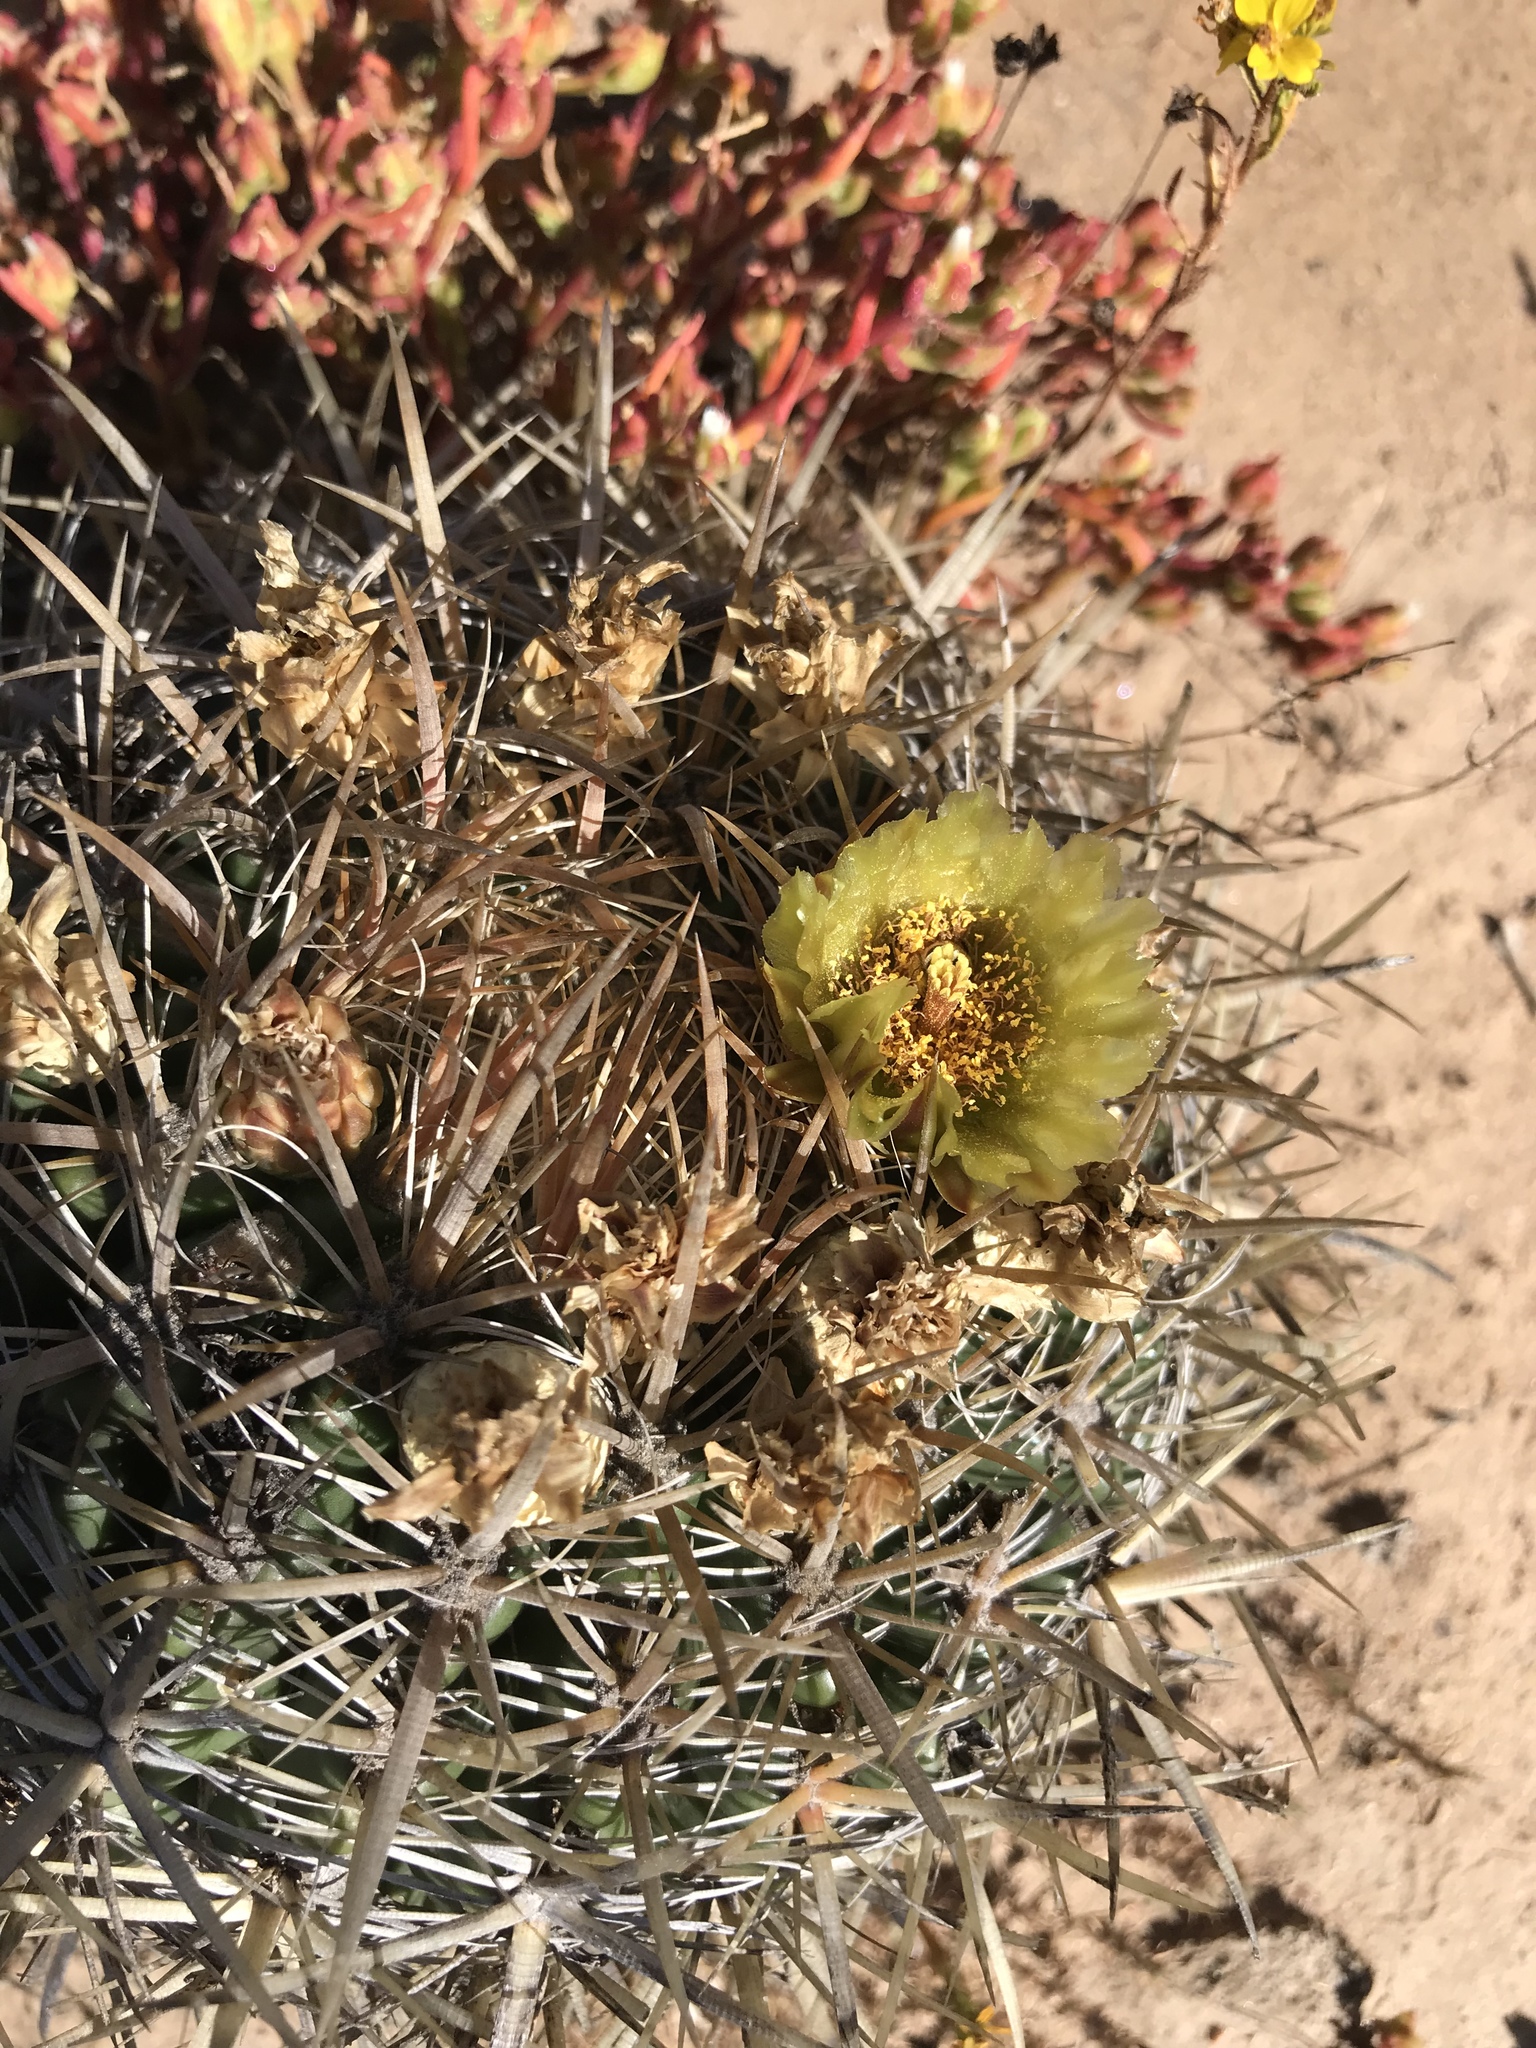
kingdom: Plantae
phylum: Tracheophyta
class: Magnoliopsida
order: Caryophyllales
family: Cactaceae
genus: Ferocactus
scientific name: Ferocactus viridescens
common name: San diego barrel cactus
